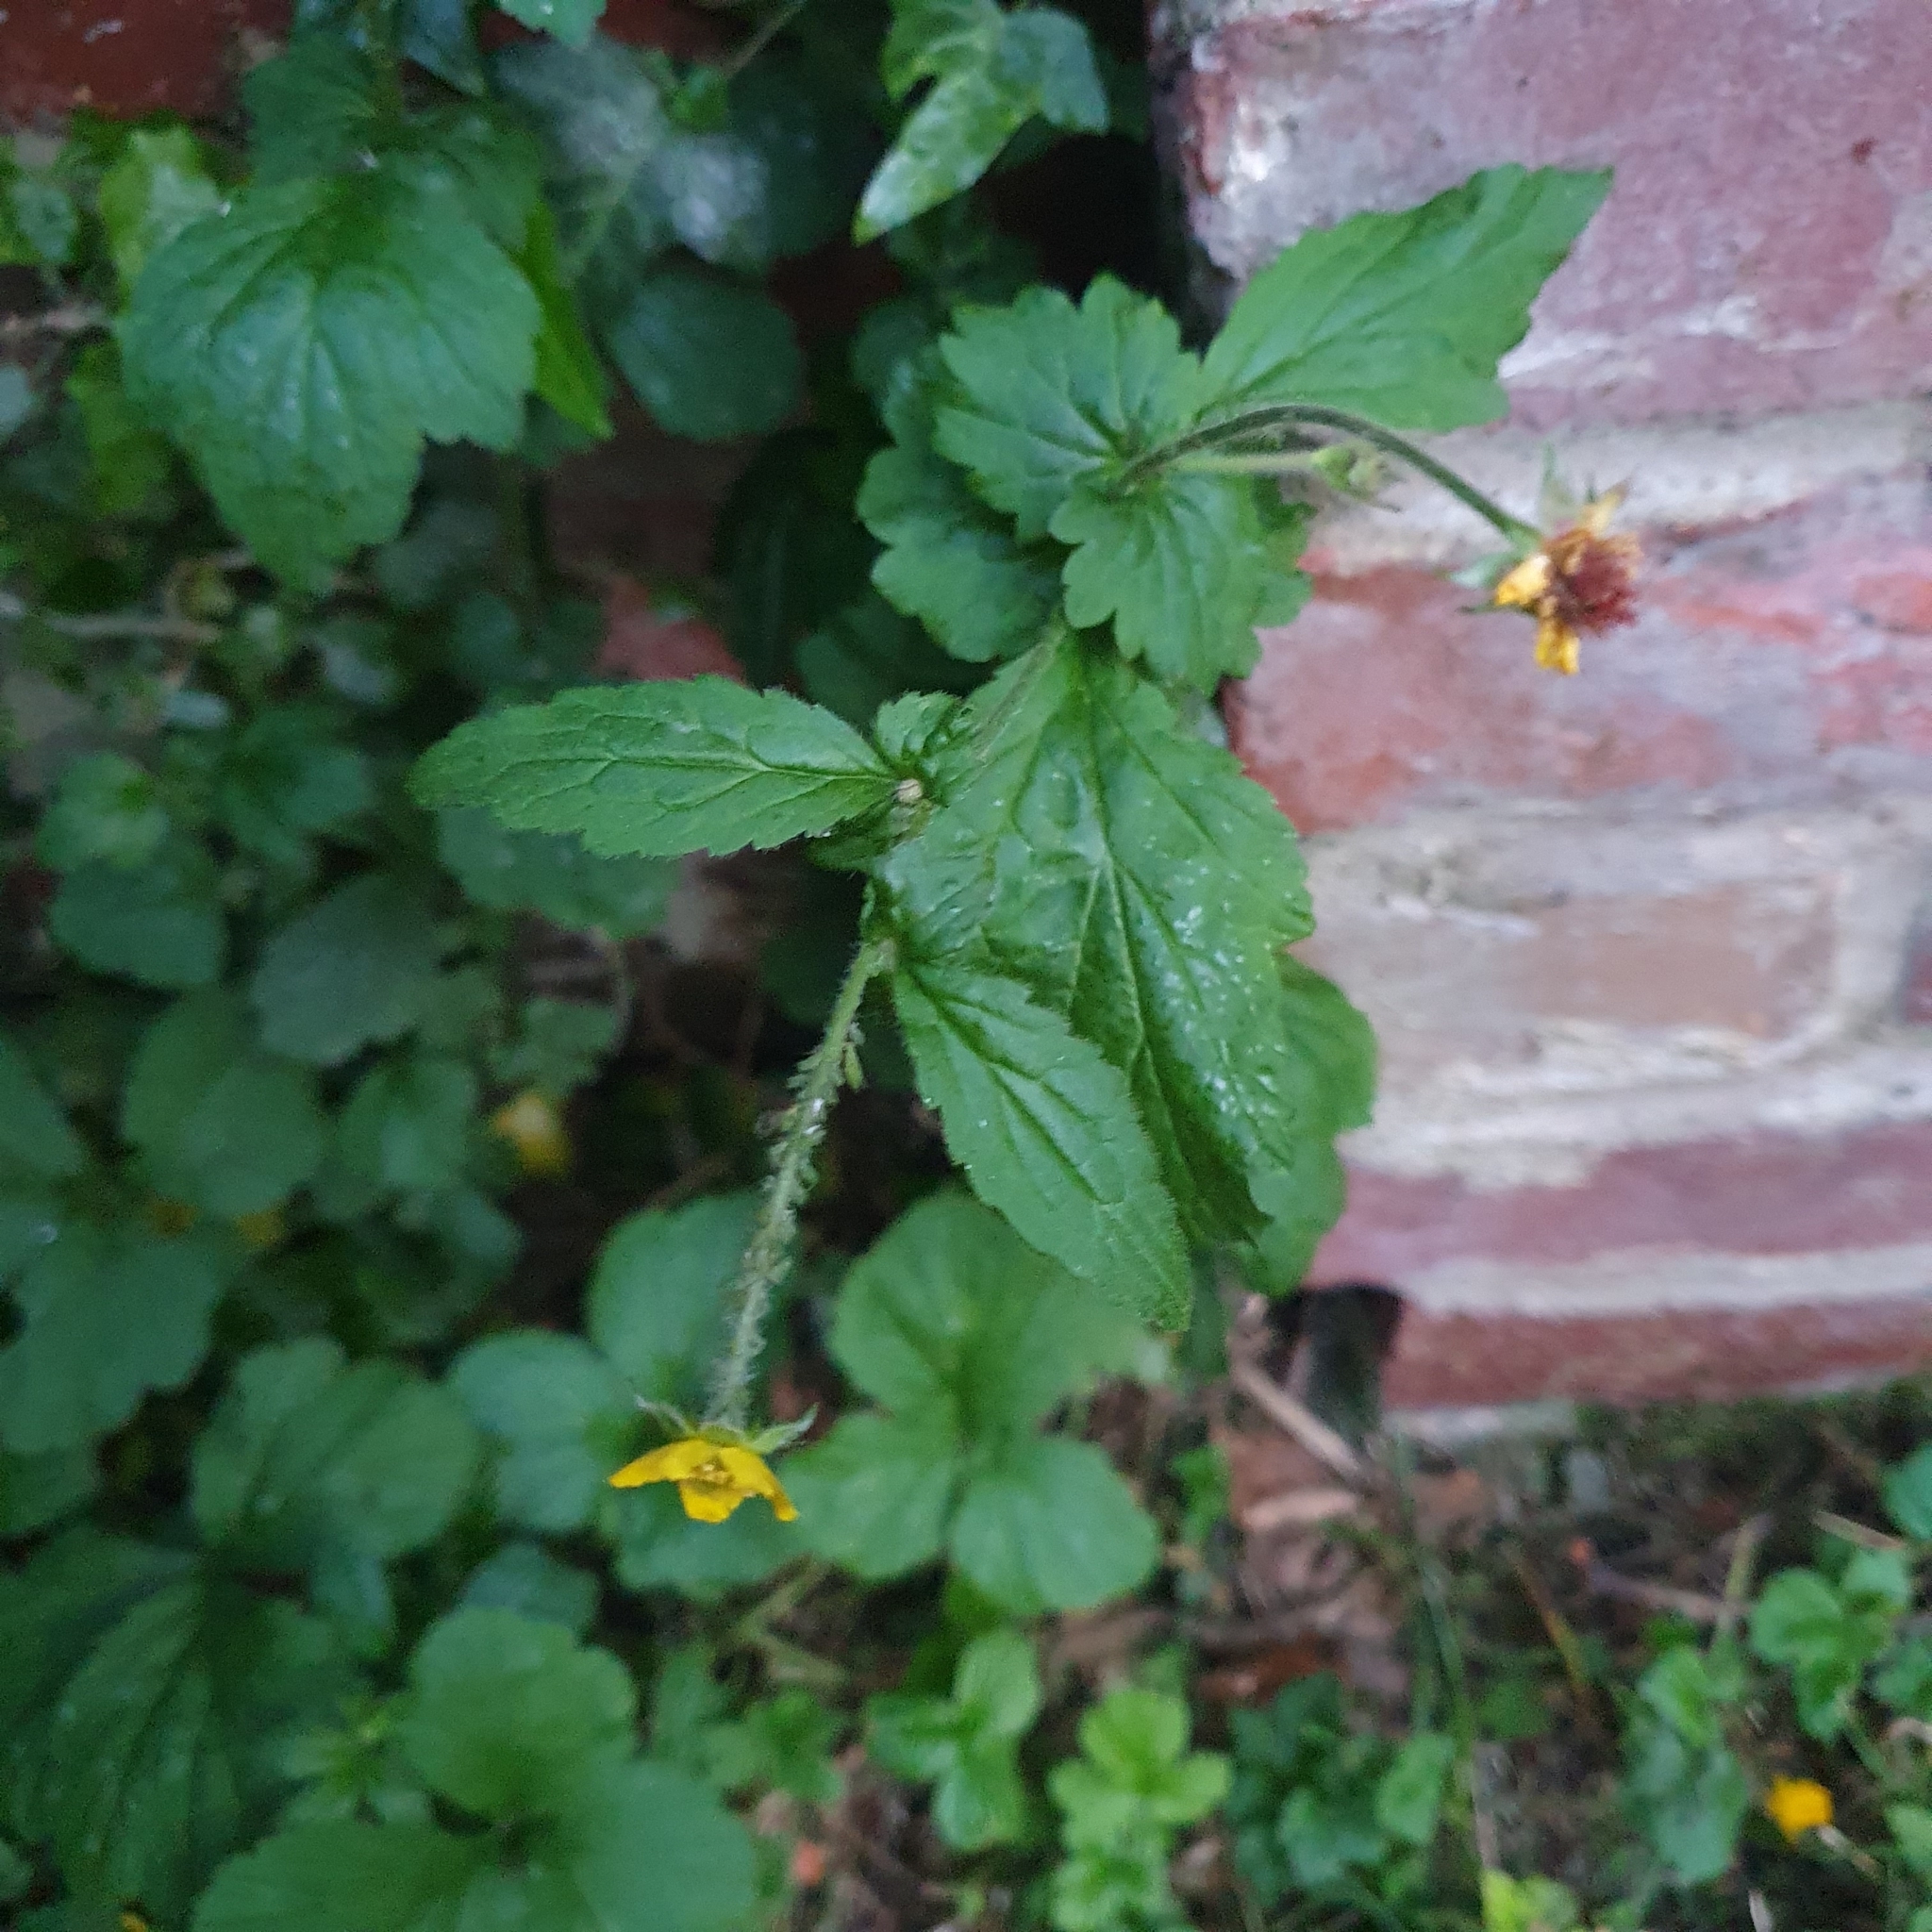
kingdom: Plantae
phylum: Tracheophyta
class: Magnoliopsida
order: Rosales
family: Rosaceae
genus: Geum
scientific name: Geum urbanum
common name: Wood avens
